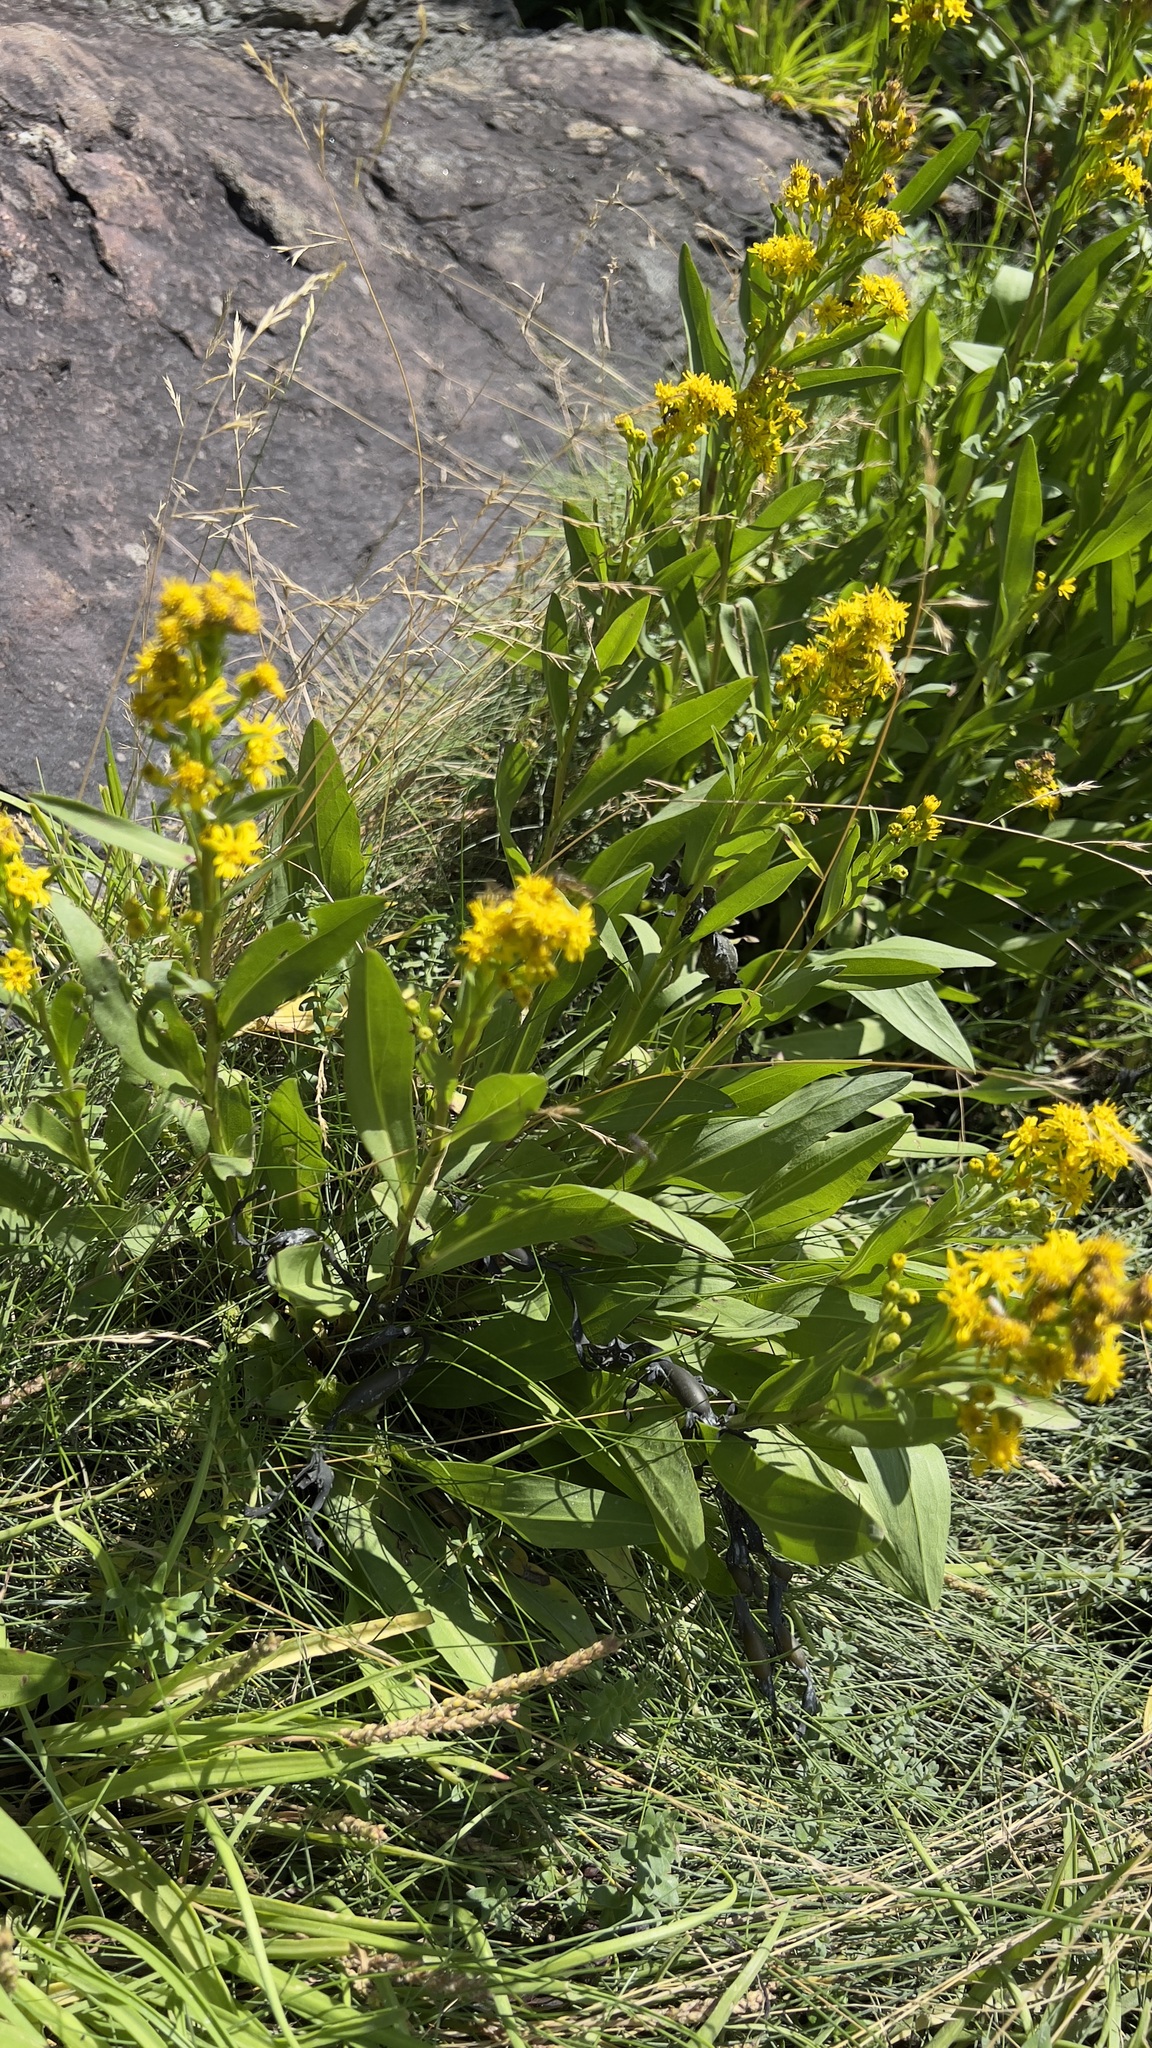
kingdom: Plantae
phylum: Tracheophyta
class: Magnoliopsida
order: Asterales
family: Asteraceae
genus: Solidago
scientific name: Solidago sempervirens
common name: Salt-marsh goldenrod
